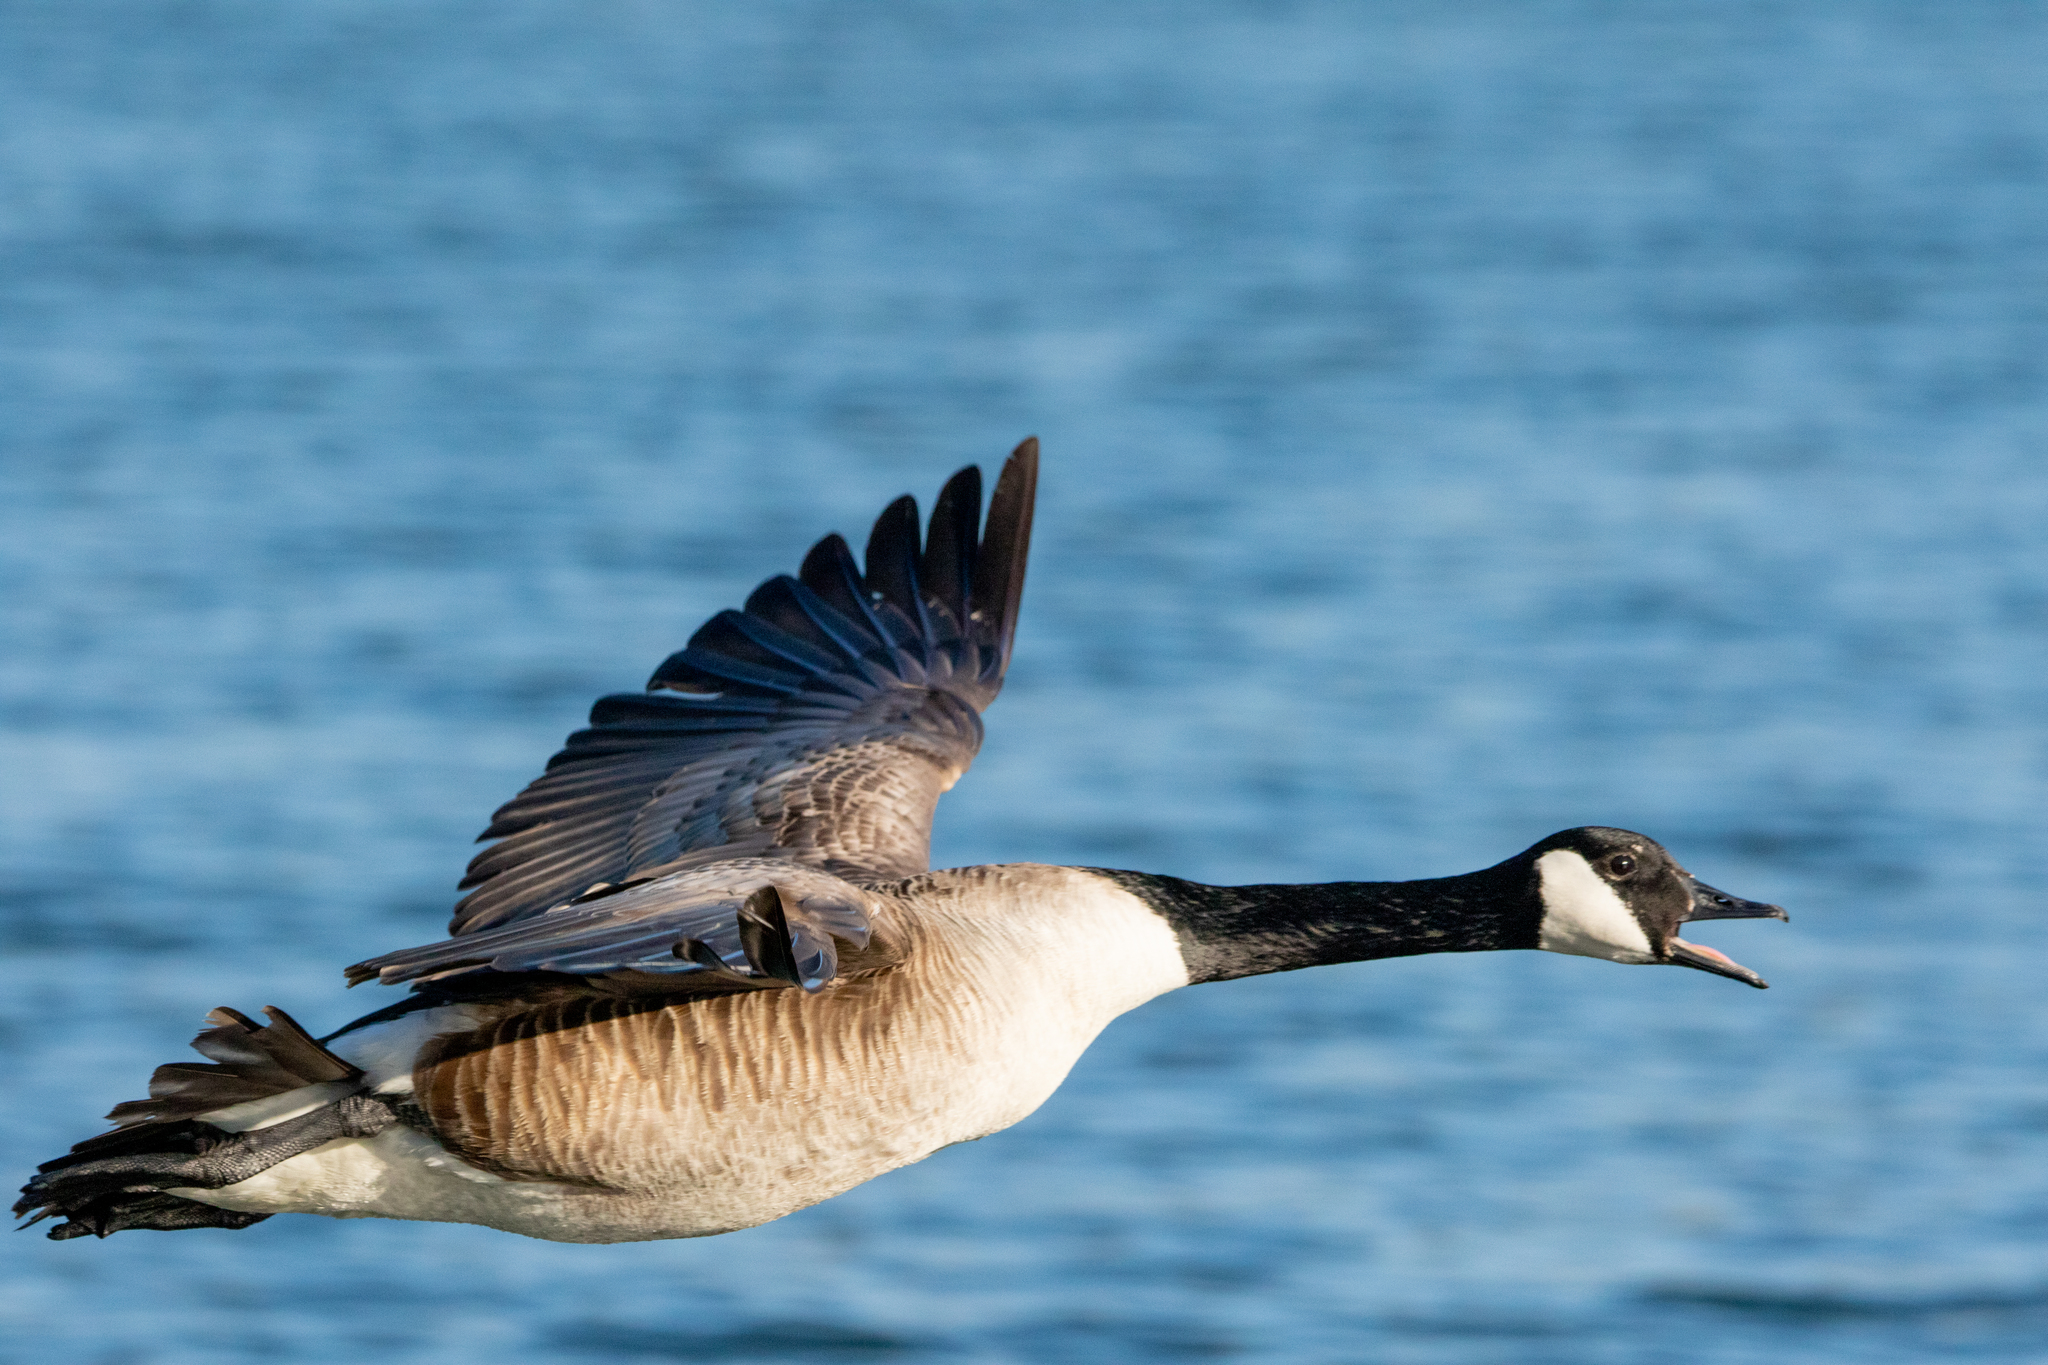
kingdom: Animalia
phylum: Chordata
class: Aves
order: Anseriformes
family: Anatidae
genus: Branta
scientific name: Branta canadensis
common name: Canada goose
